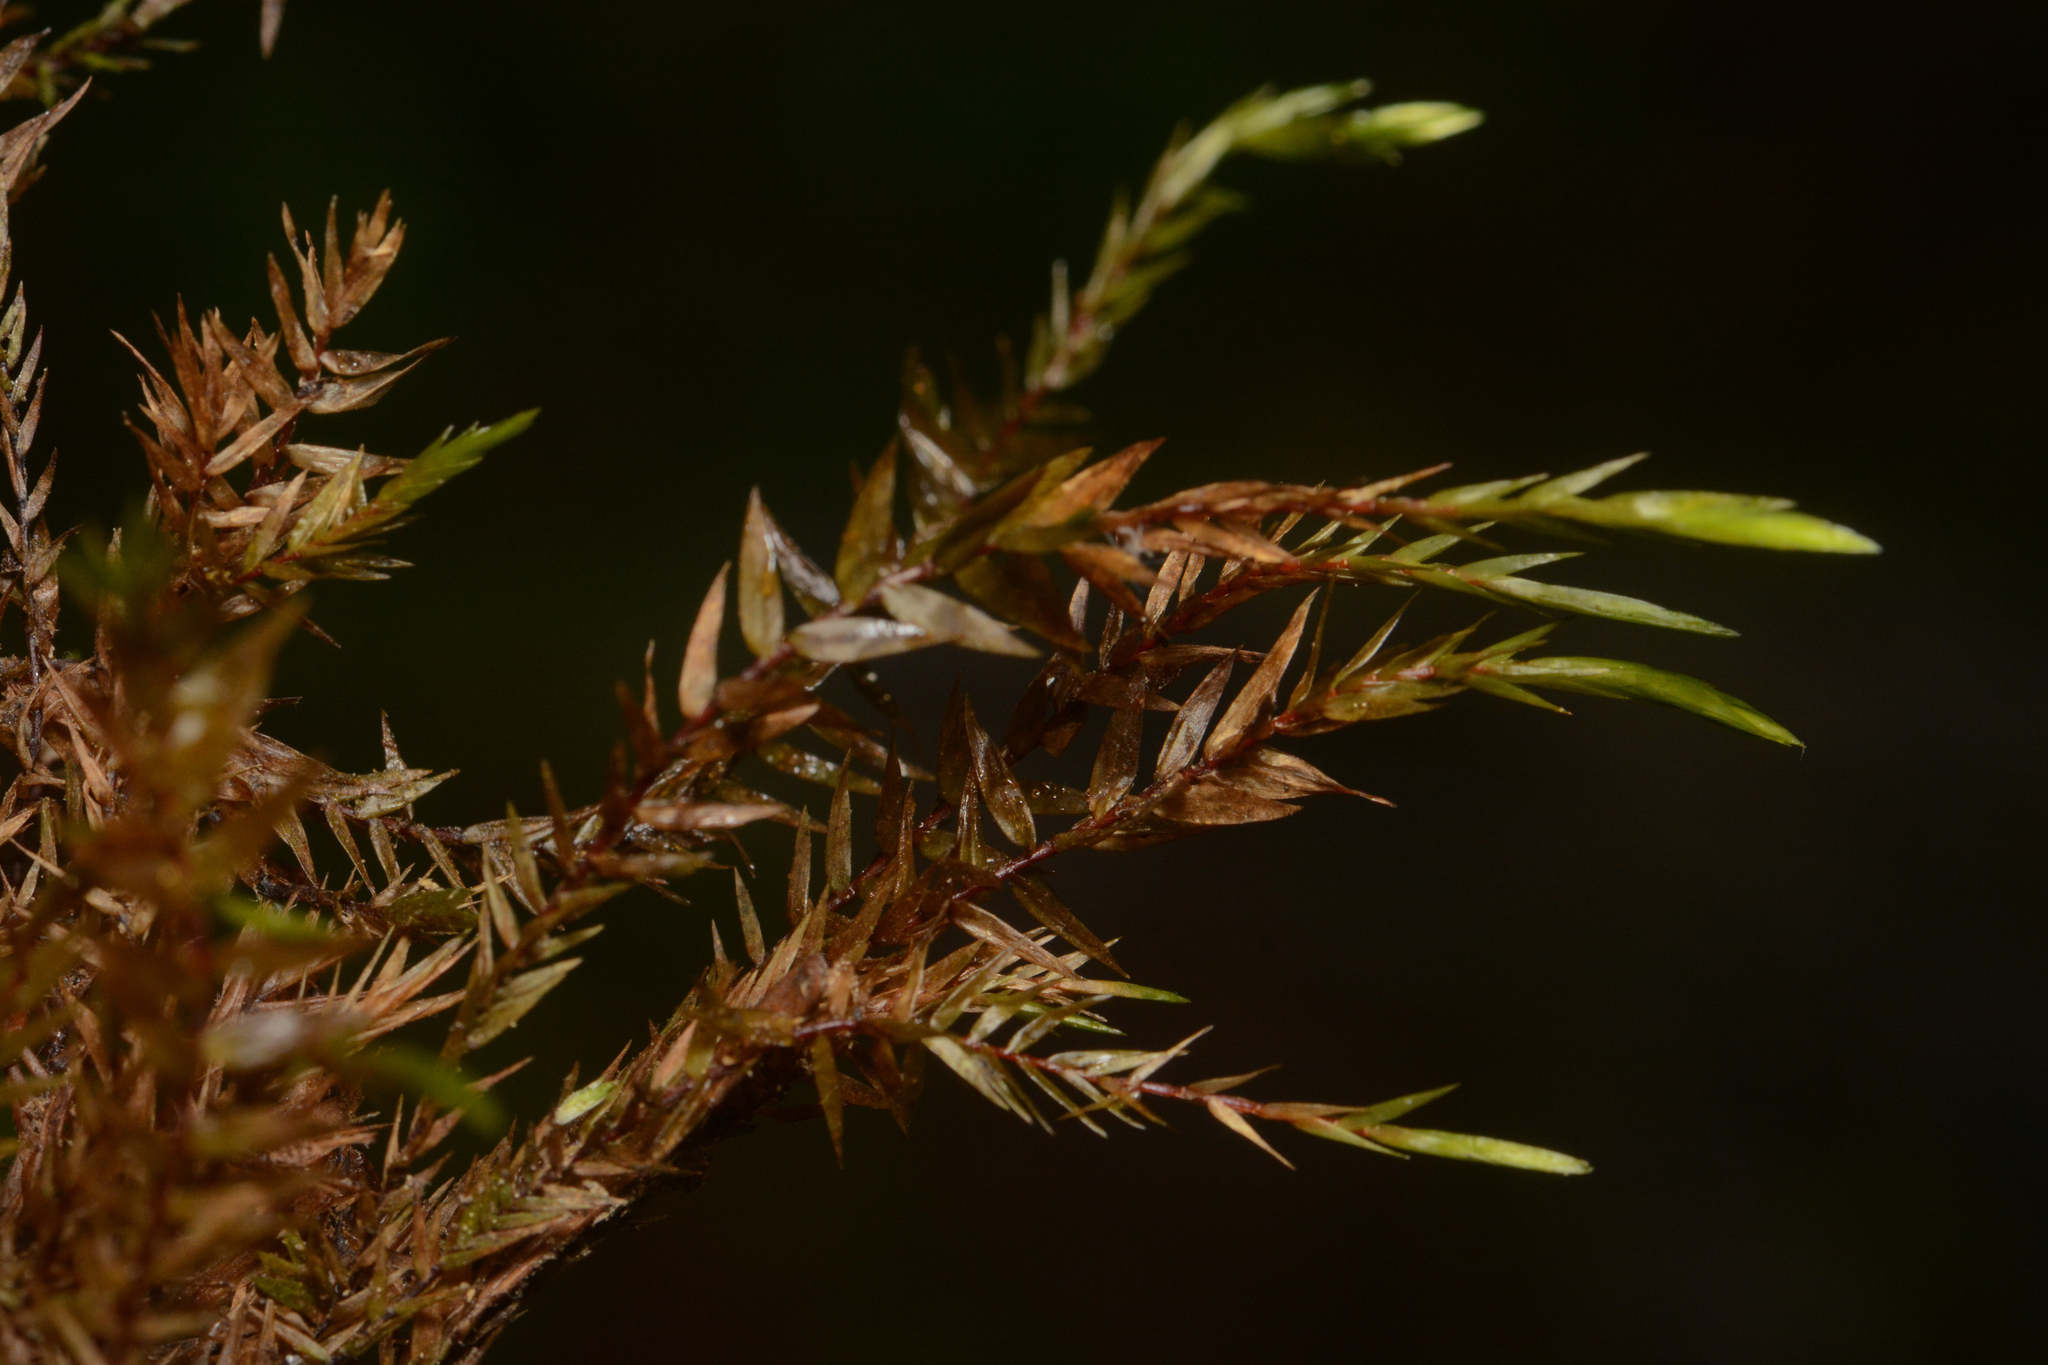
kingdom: Plantae
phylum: Bryophyta
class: Bryopsida
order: Hypnales
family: Fontinalaceae
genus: Fontinalis
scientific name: Fontinalis antipyretica
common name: Greater water-moss
